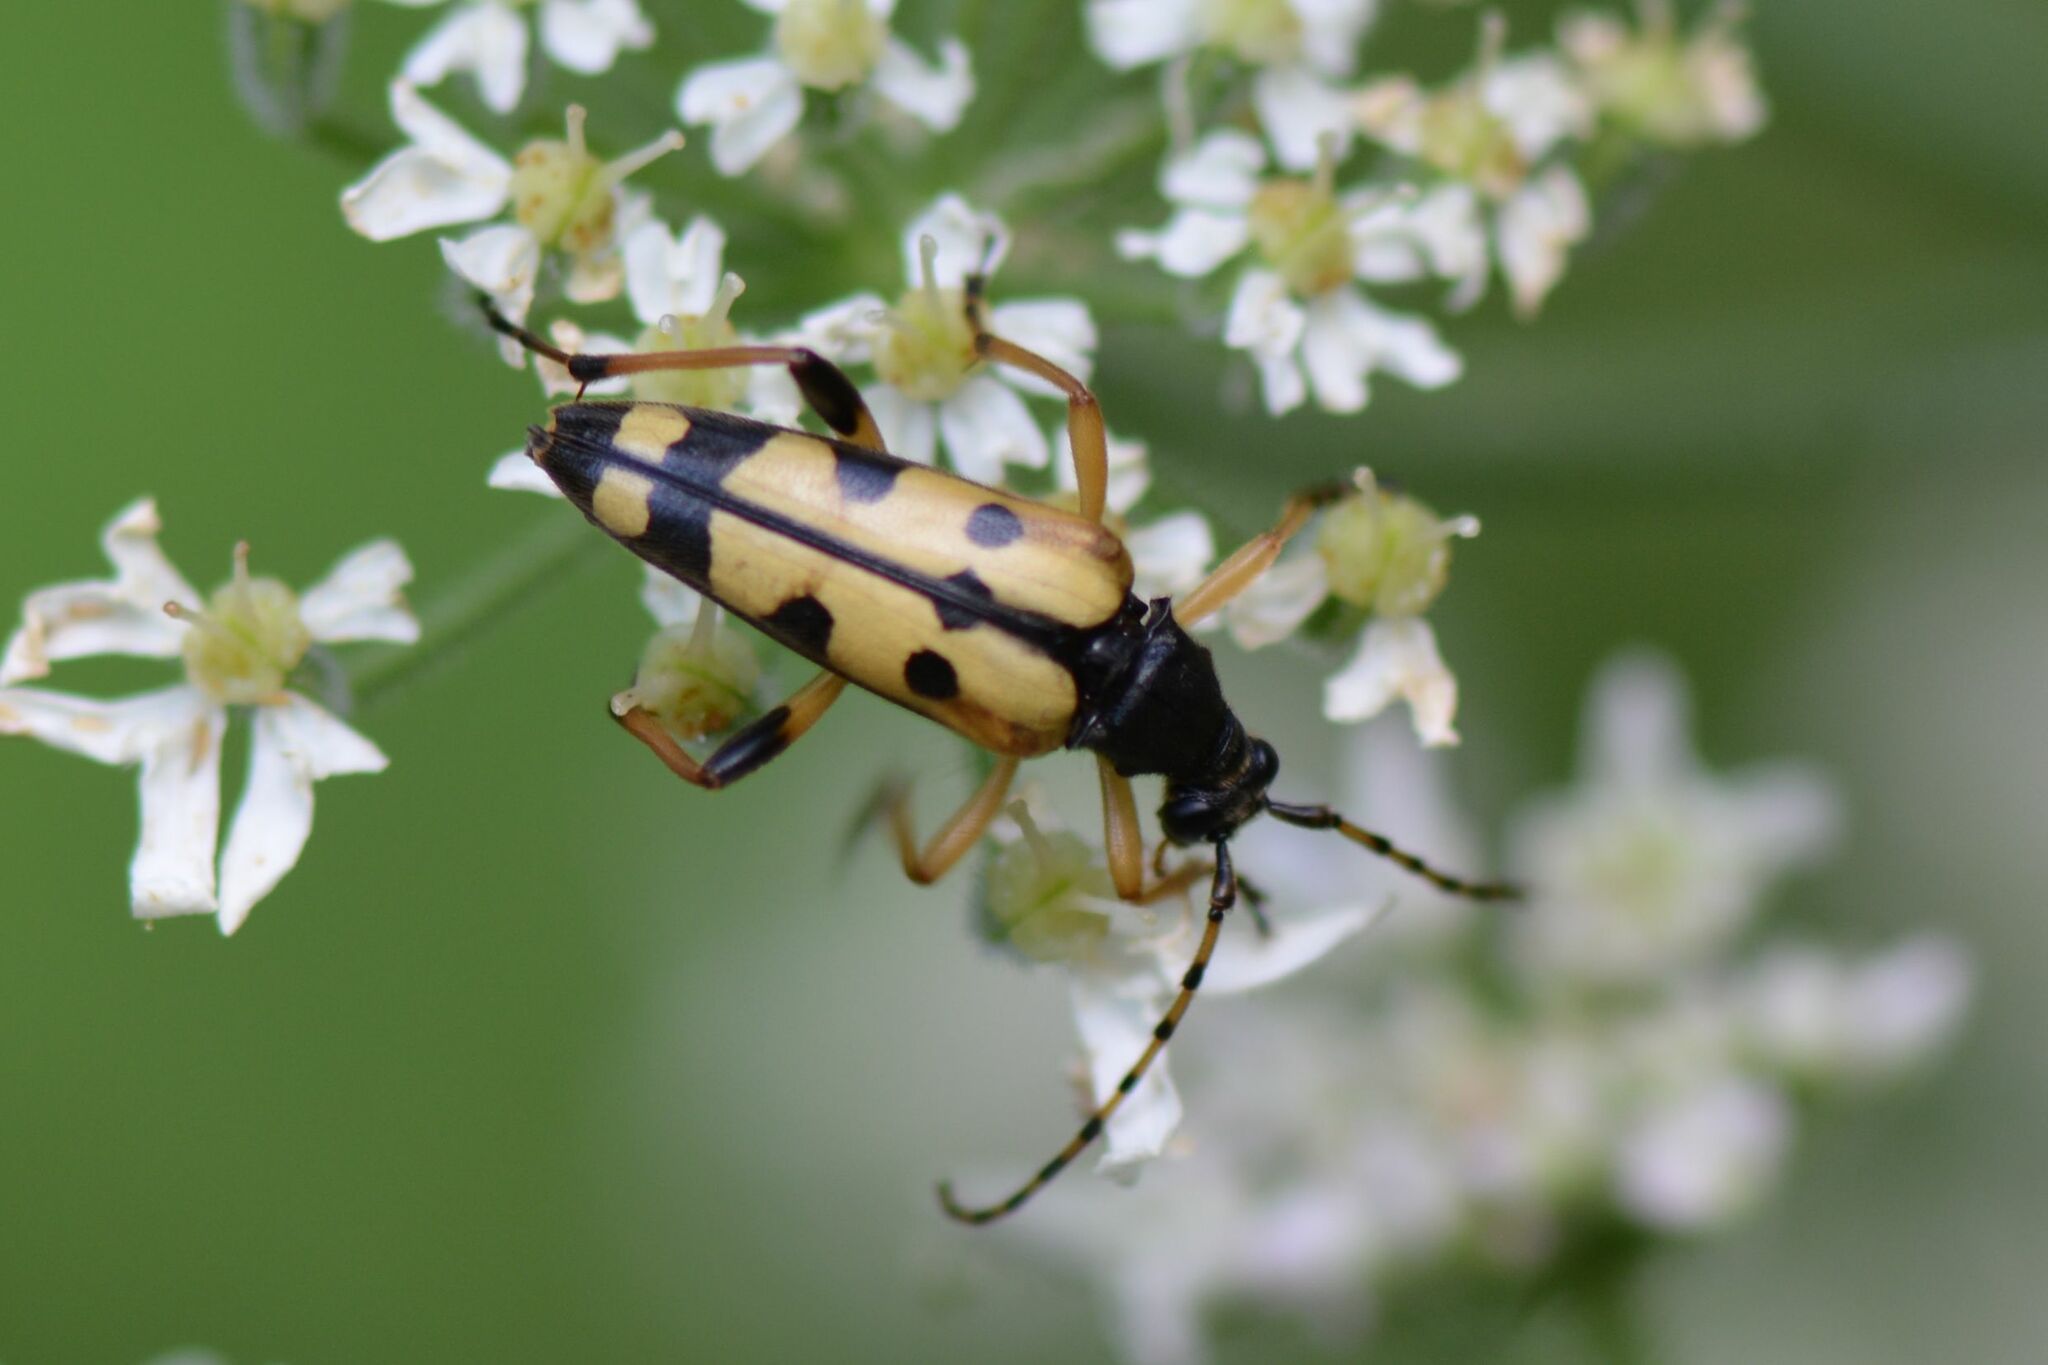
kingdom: Animalia
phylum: Arthropoda
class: Insecta
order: Coleoptera
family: Cerambycidae
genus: Rutpela
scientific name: Rutpela maculata
